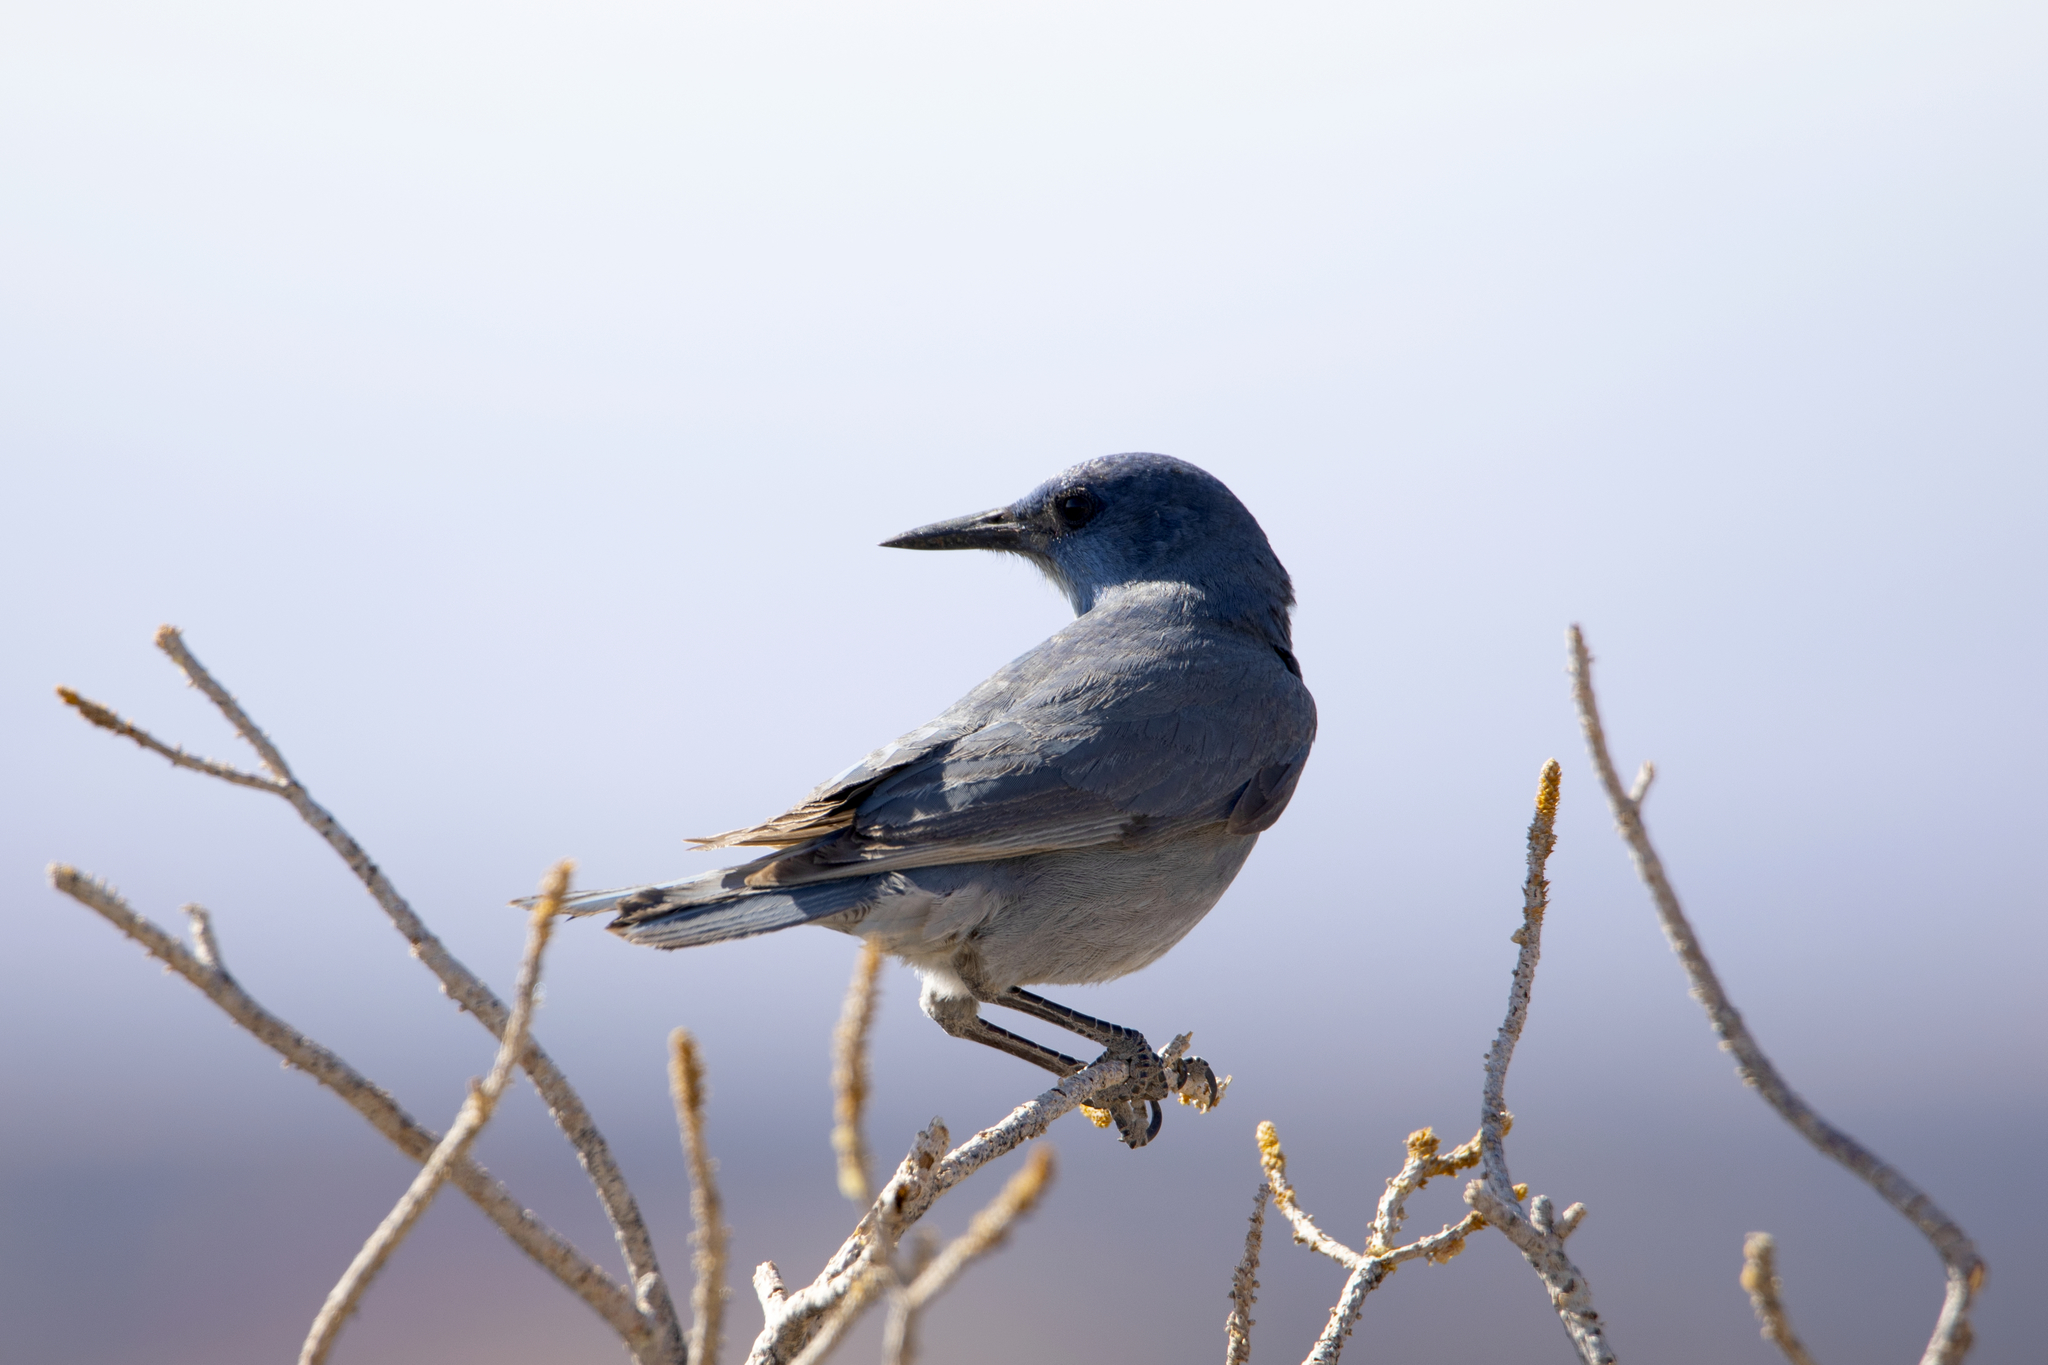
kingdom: Animalia
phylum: Chordata
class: Aves
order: Passeriformes
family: Corvidae
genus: Gymnorhinus
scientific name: Gymnorhinus cyanocephalus
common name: Pinyon jay
